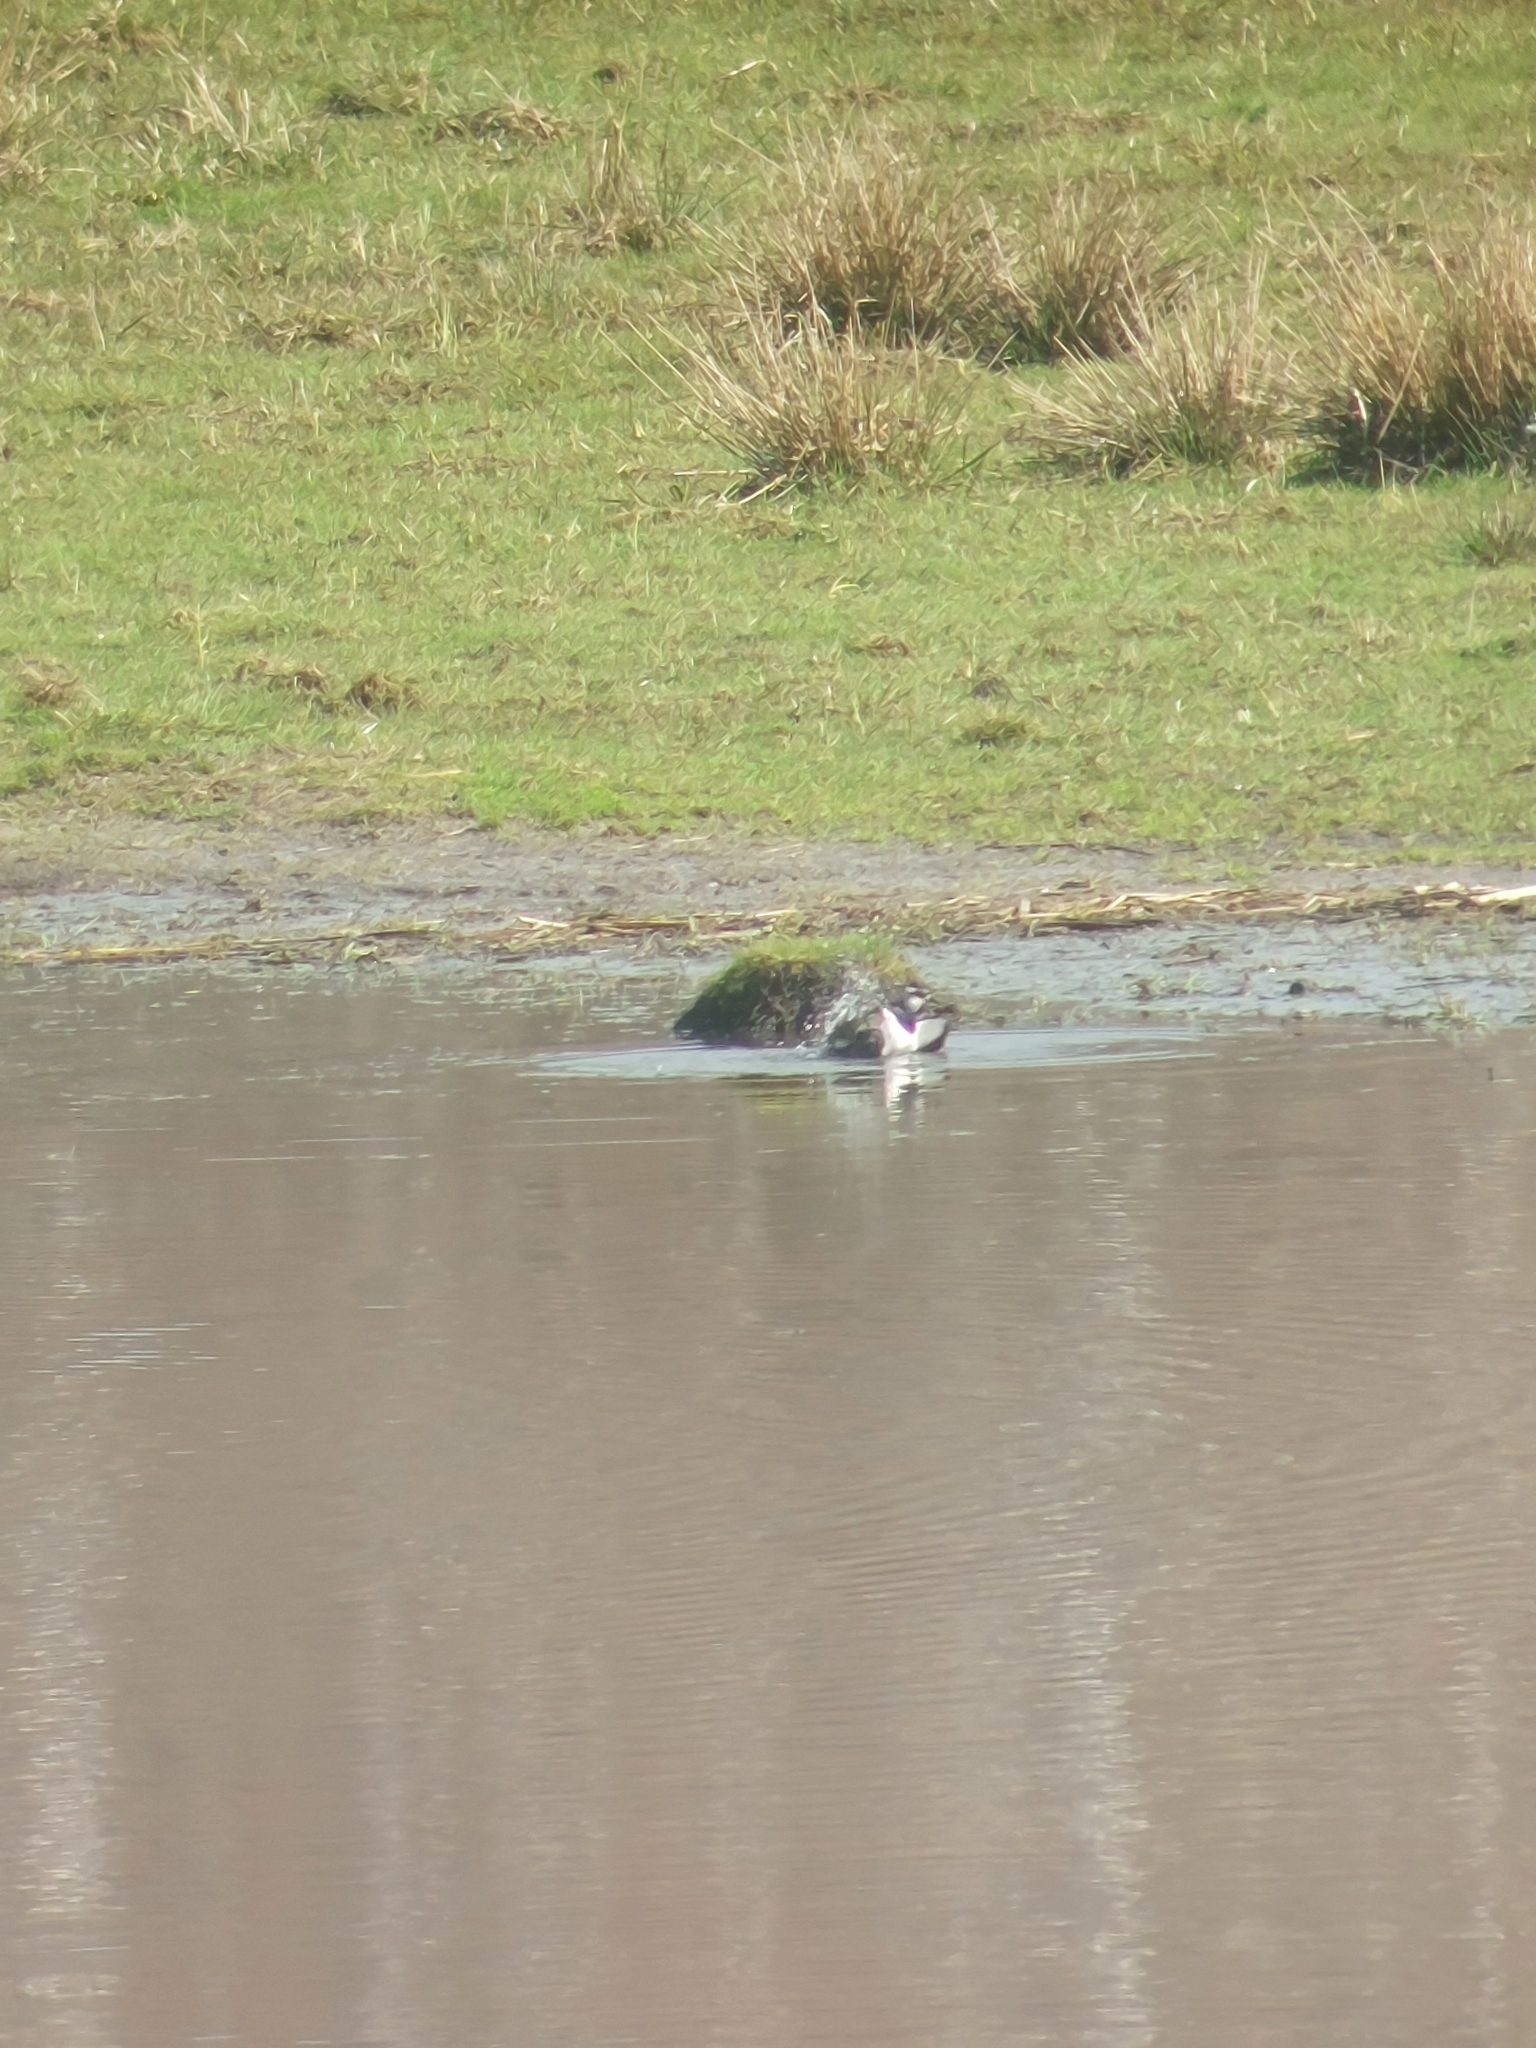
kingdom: Animalia
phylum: Chordata
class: Aves
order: Charadriiformes
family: Charadriidae
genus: Vanellus
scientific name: Vanellus vanellus
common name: Northern lapwing
